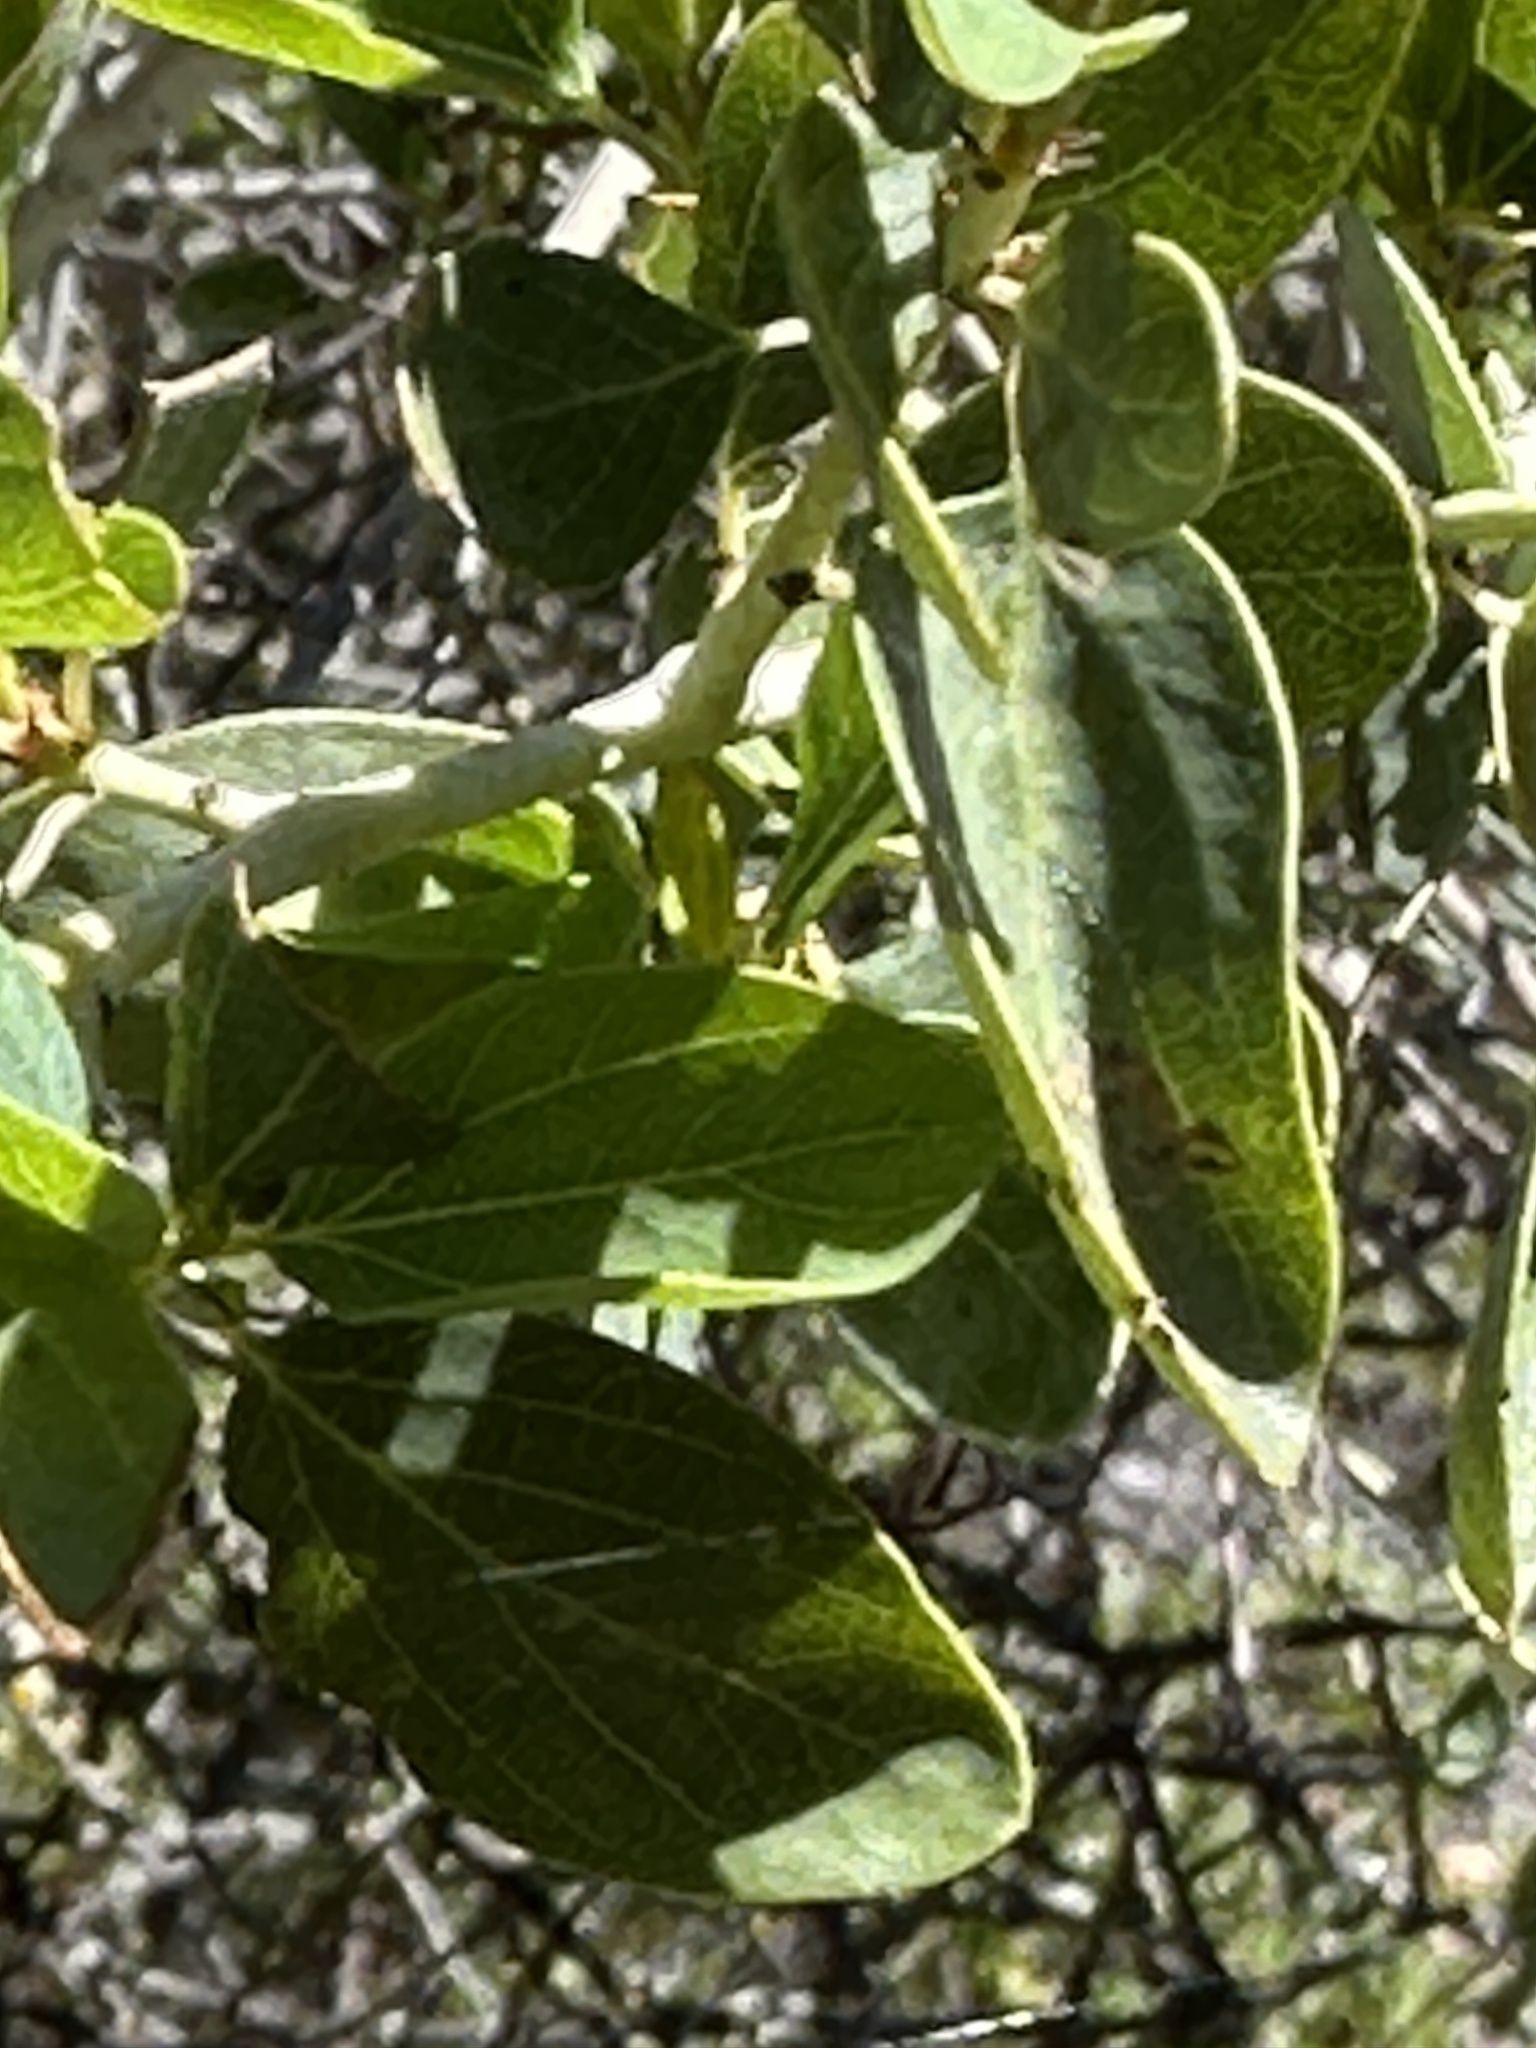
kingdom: Plantae
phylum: Tracheophyta
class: Magnoliopsida
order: Rosales
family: Rhamnaceae
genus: Ceanothus
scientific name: Ceanothus leucodermis
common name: Chaparral whitethorn
